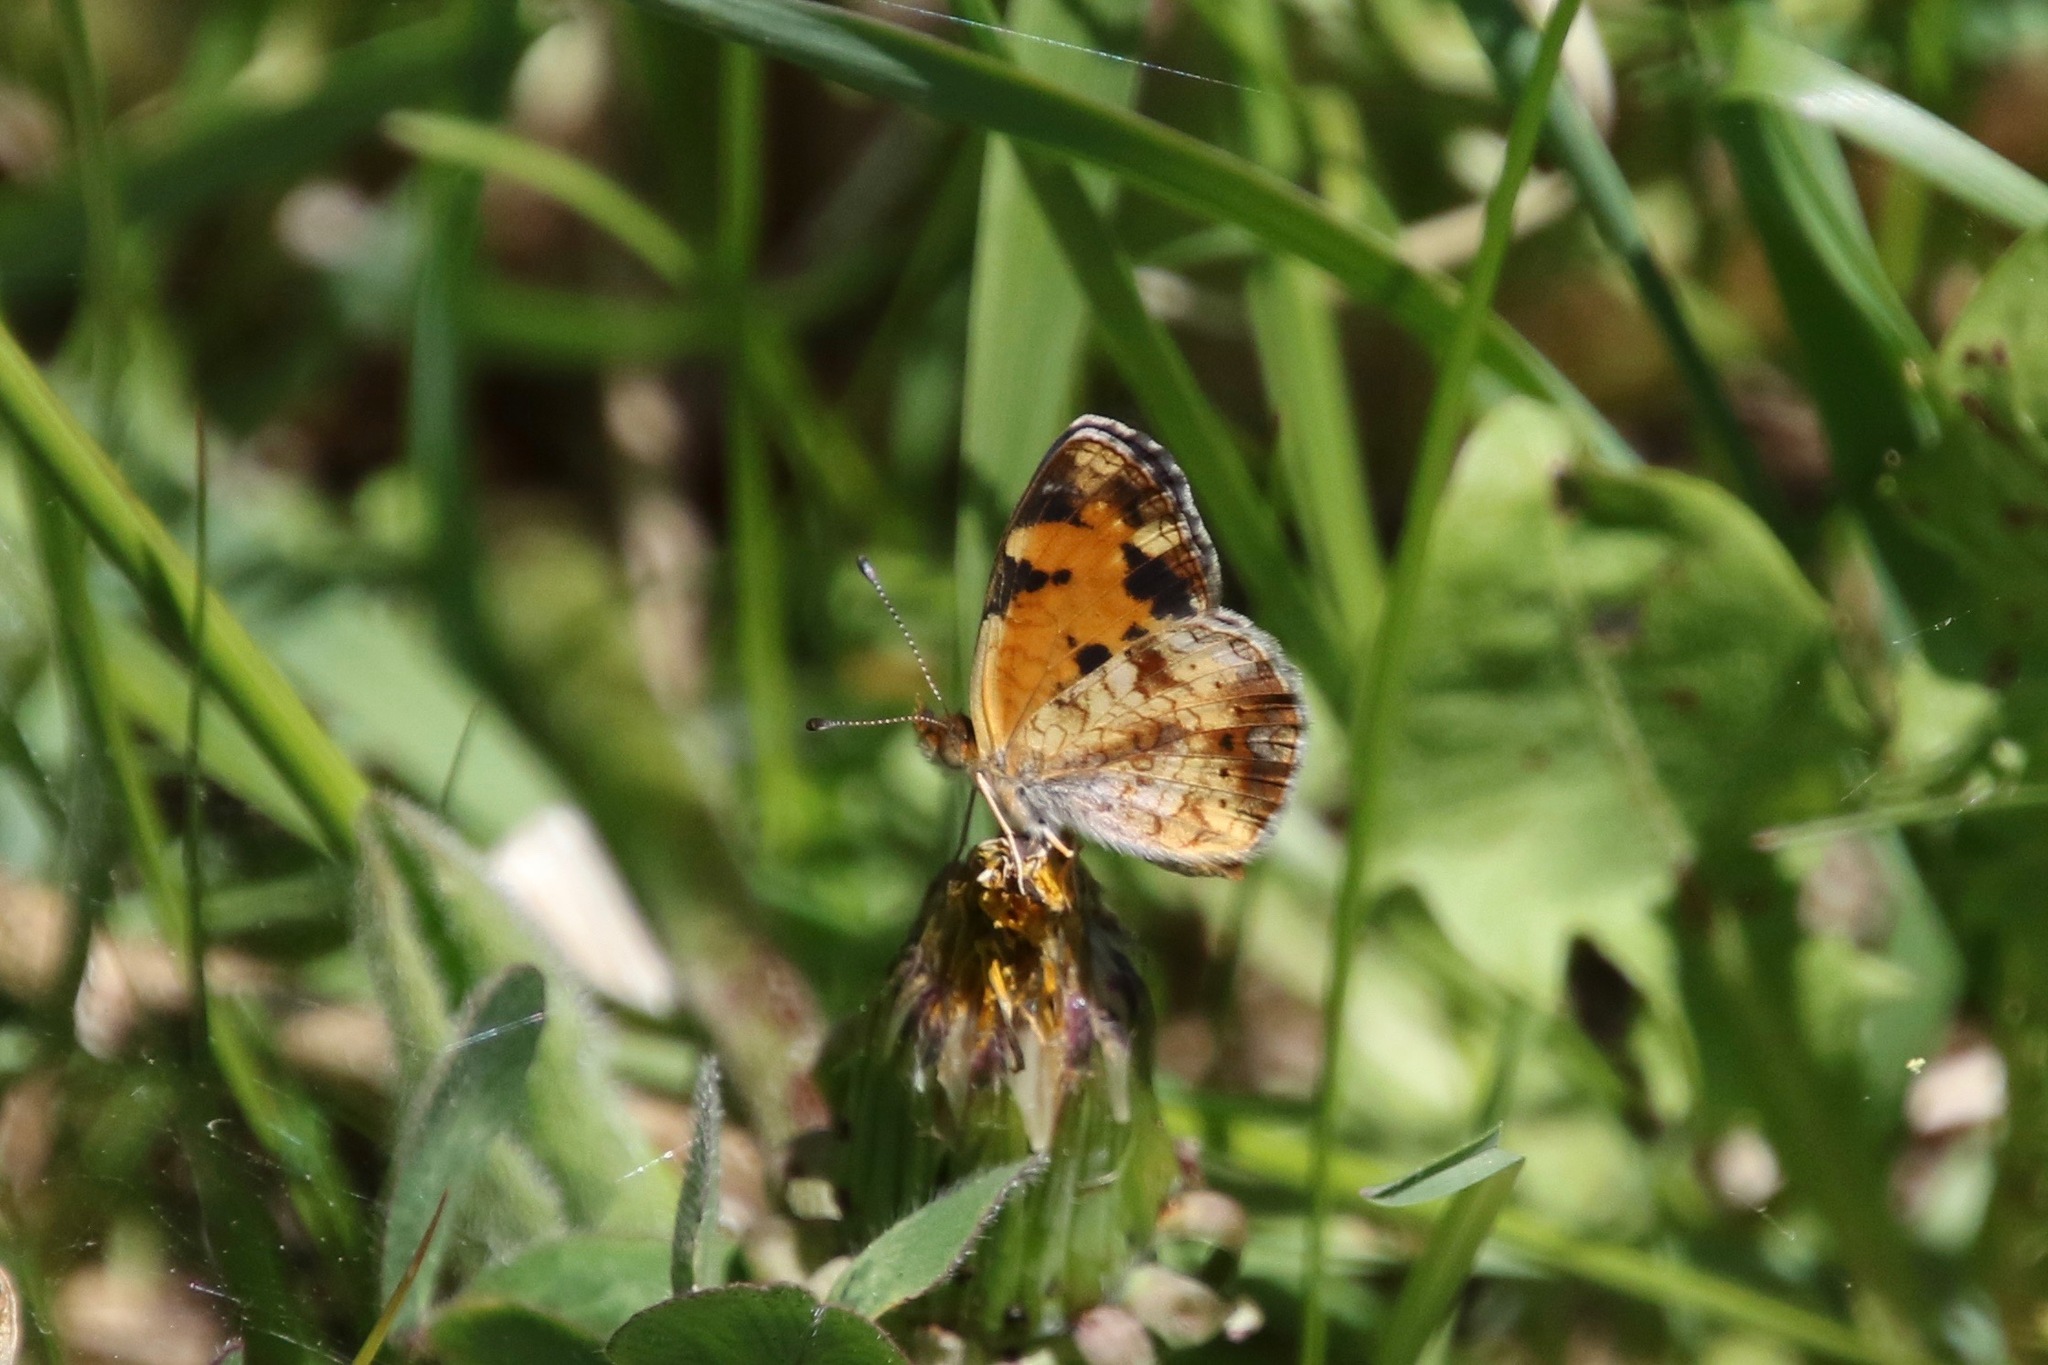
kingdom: Animalia
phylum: Arthropoda
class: Insecta
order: Lepidoptera
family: Nymphalidae
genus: Phyciodes
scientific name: Phyciodes tharos
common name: Pearl crescent
